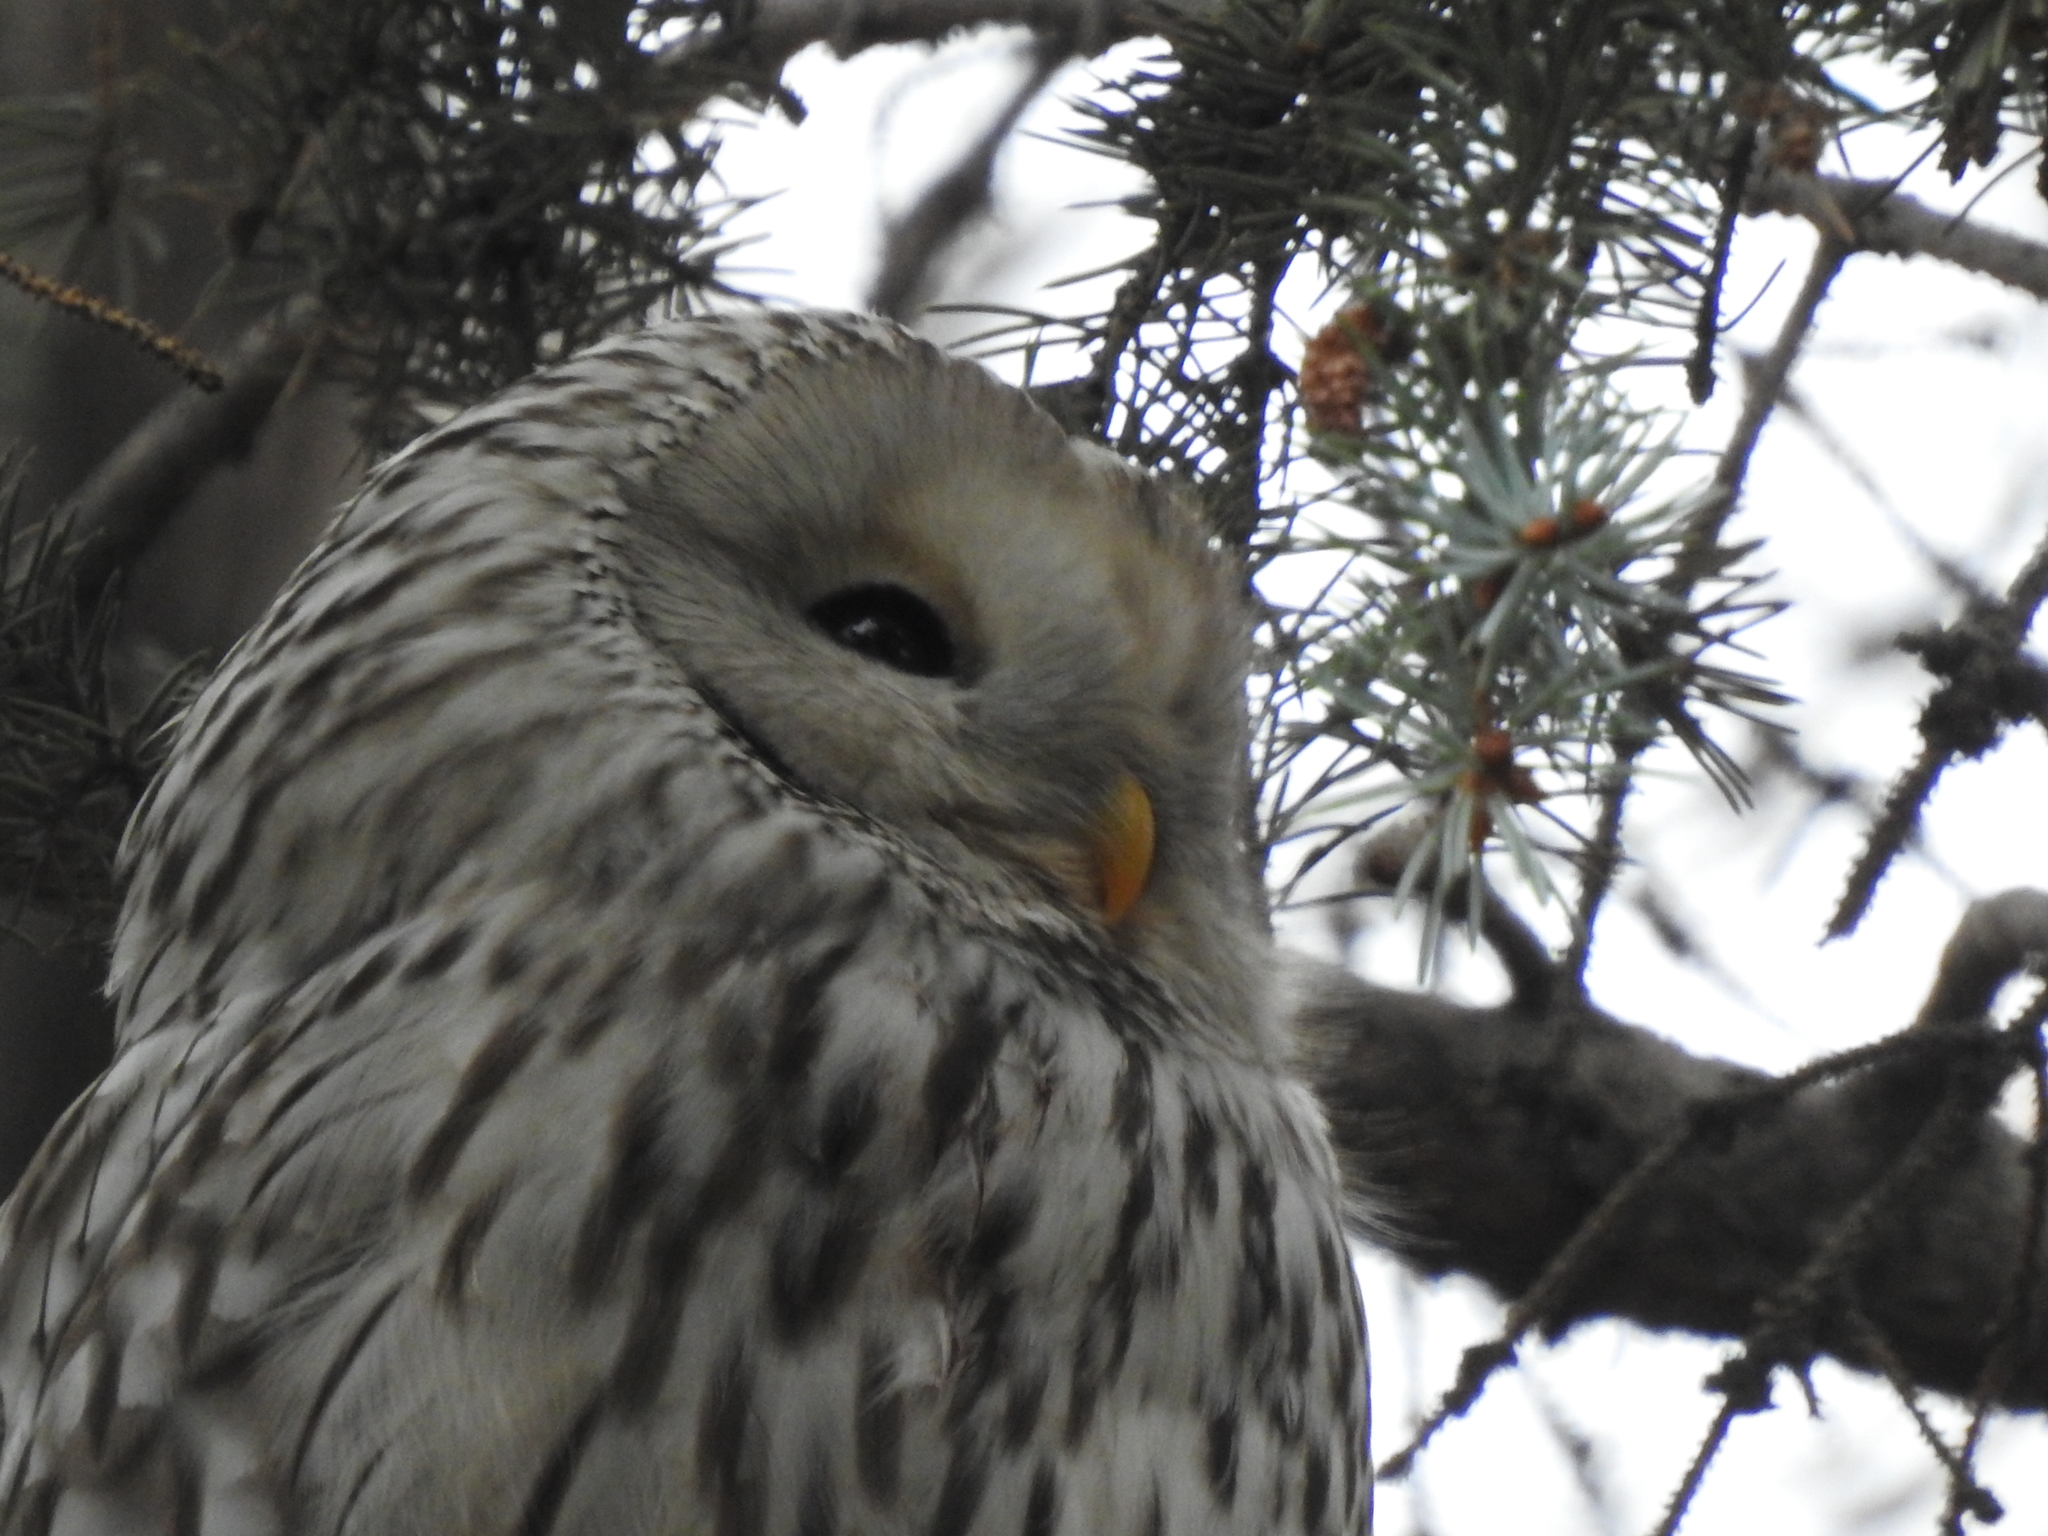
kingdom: Animalia
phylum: Chordata
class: Aves
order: Strigiformes
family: Strigidae
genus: Strix
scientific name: Strix uralensis
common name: Ural owl
